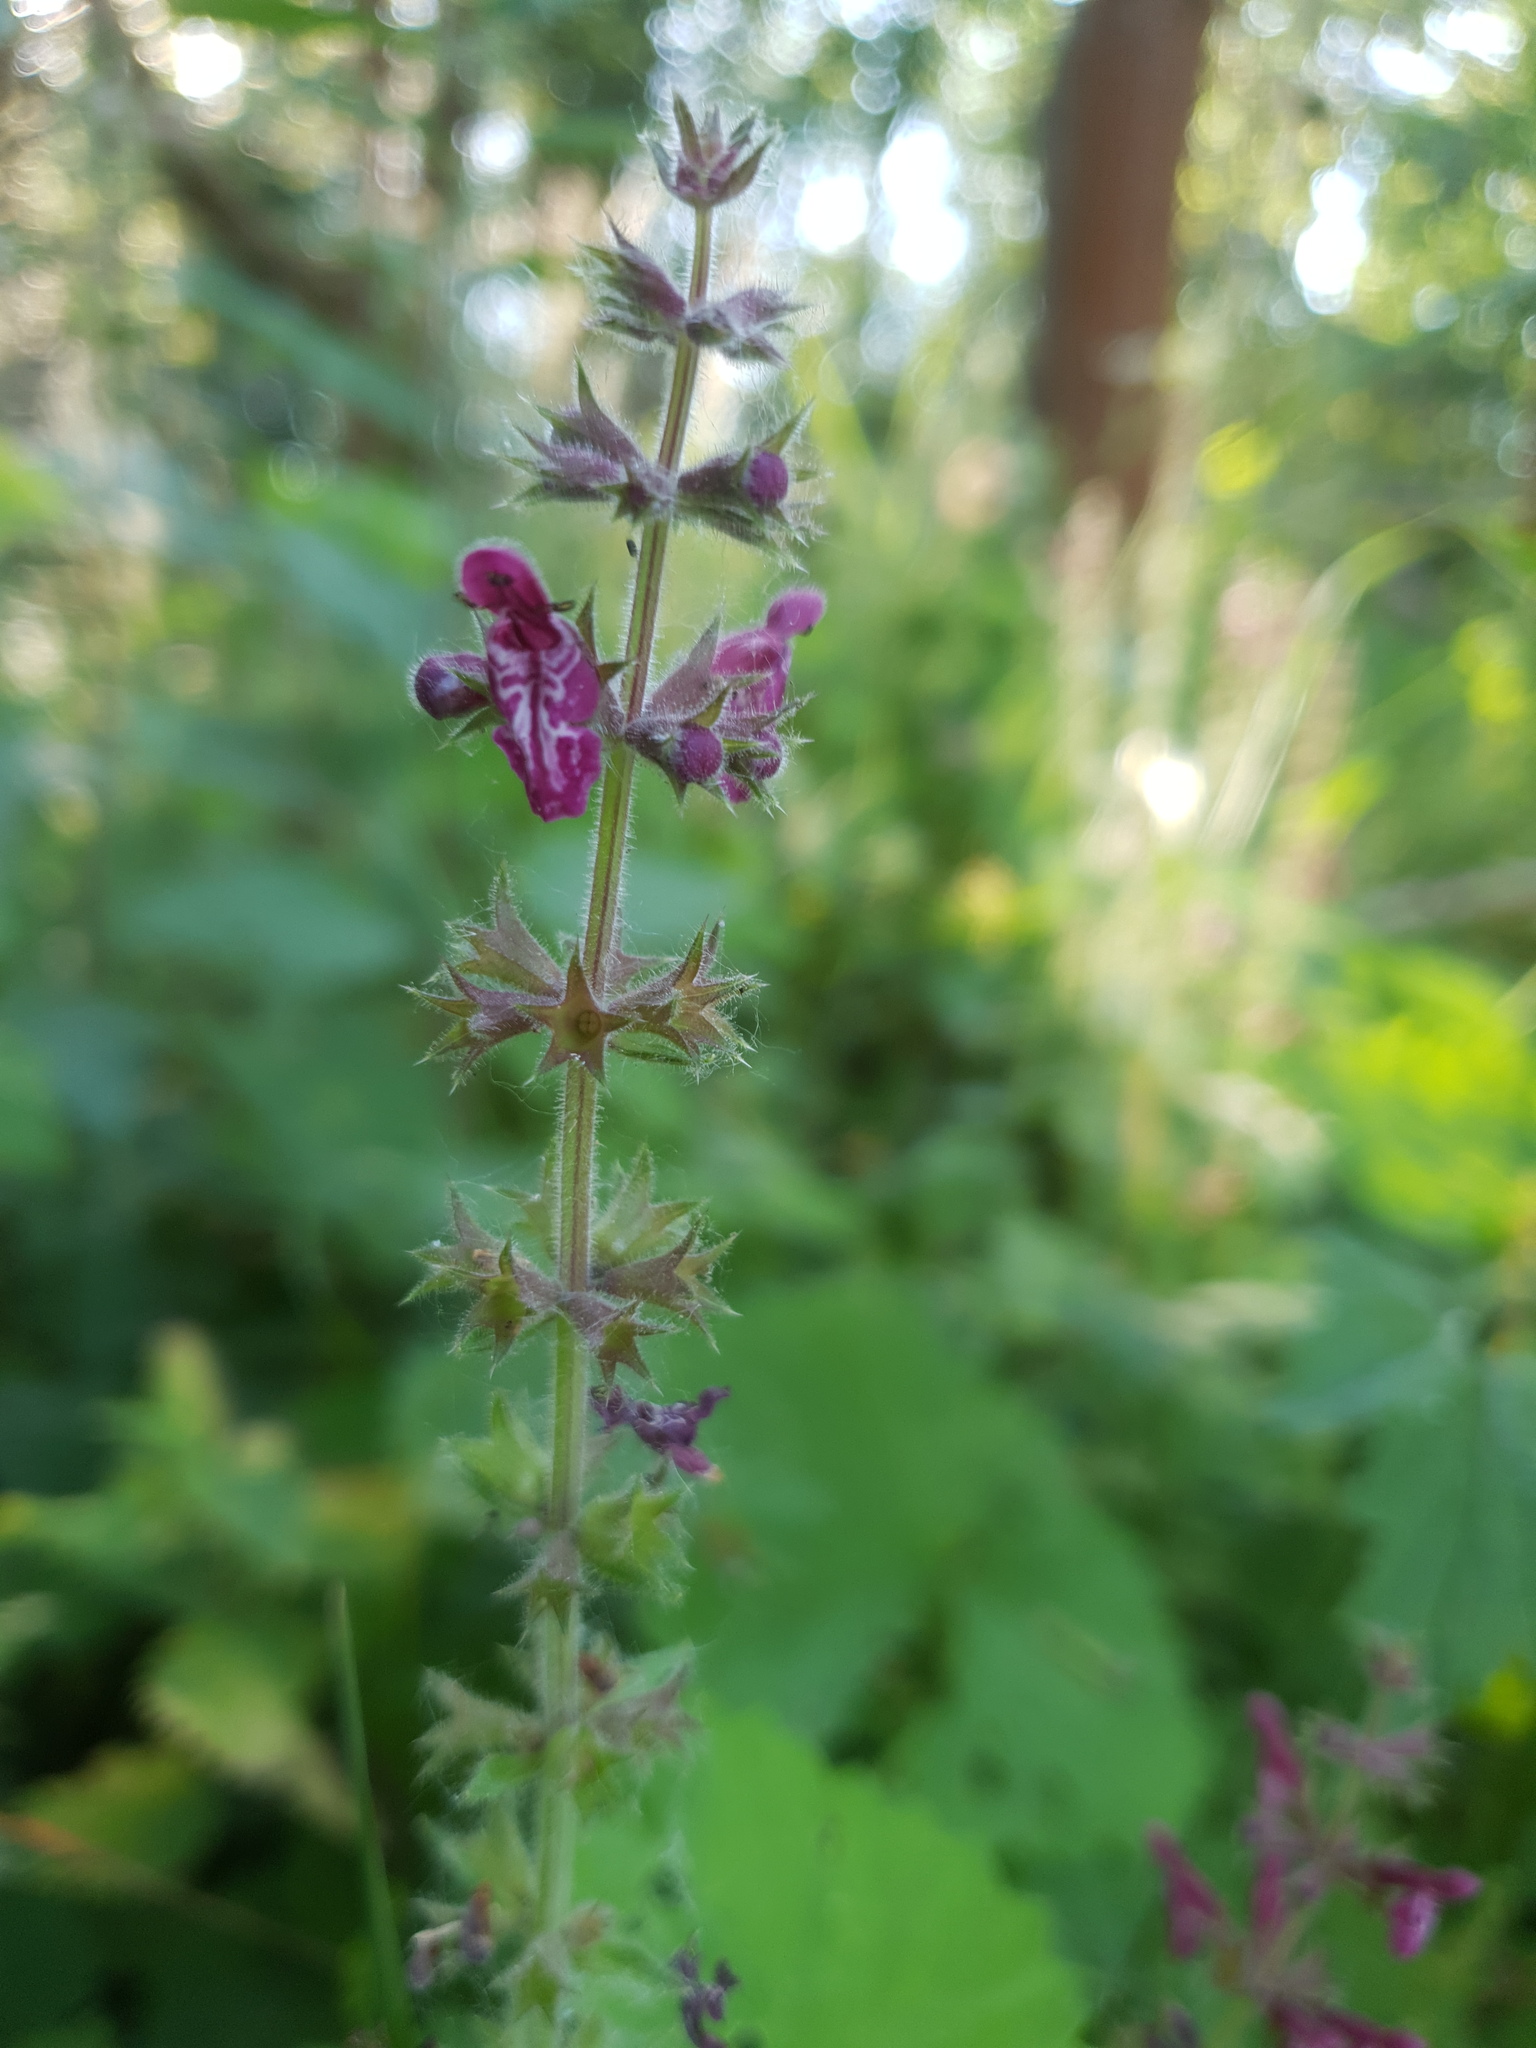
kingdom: Plantae
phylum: Tracheophyta
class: Magnoliopsida
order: Lamiales
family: Lamiaceae
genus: Stachys
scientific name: Stachys sylvatica
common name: Hedge woundwort
